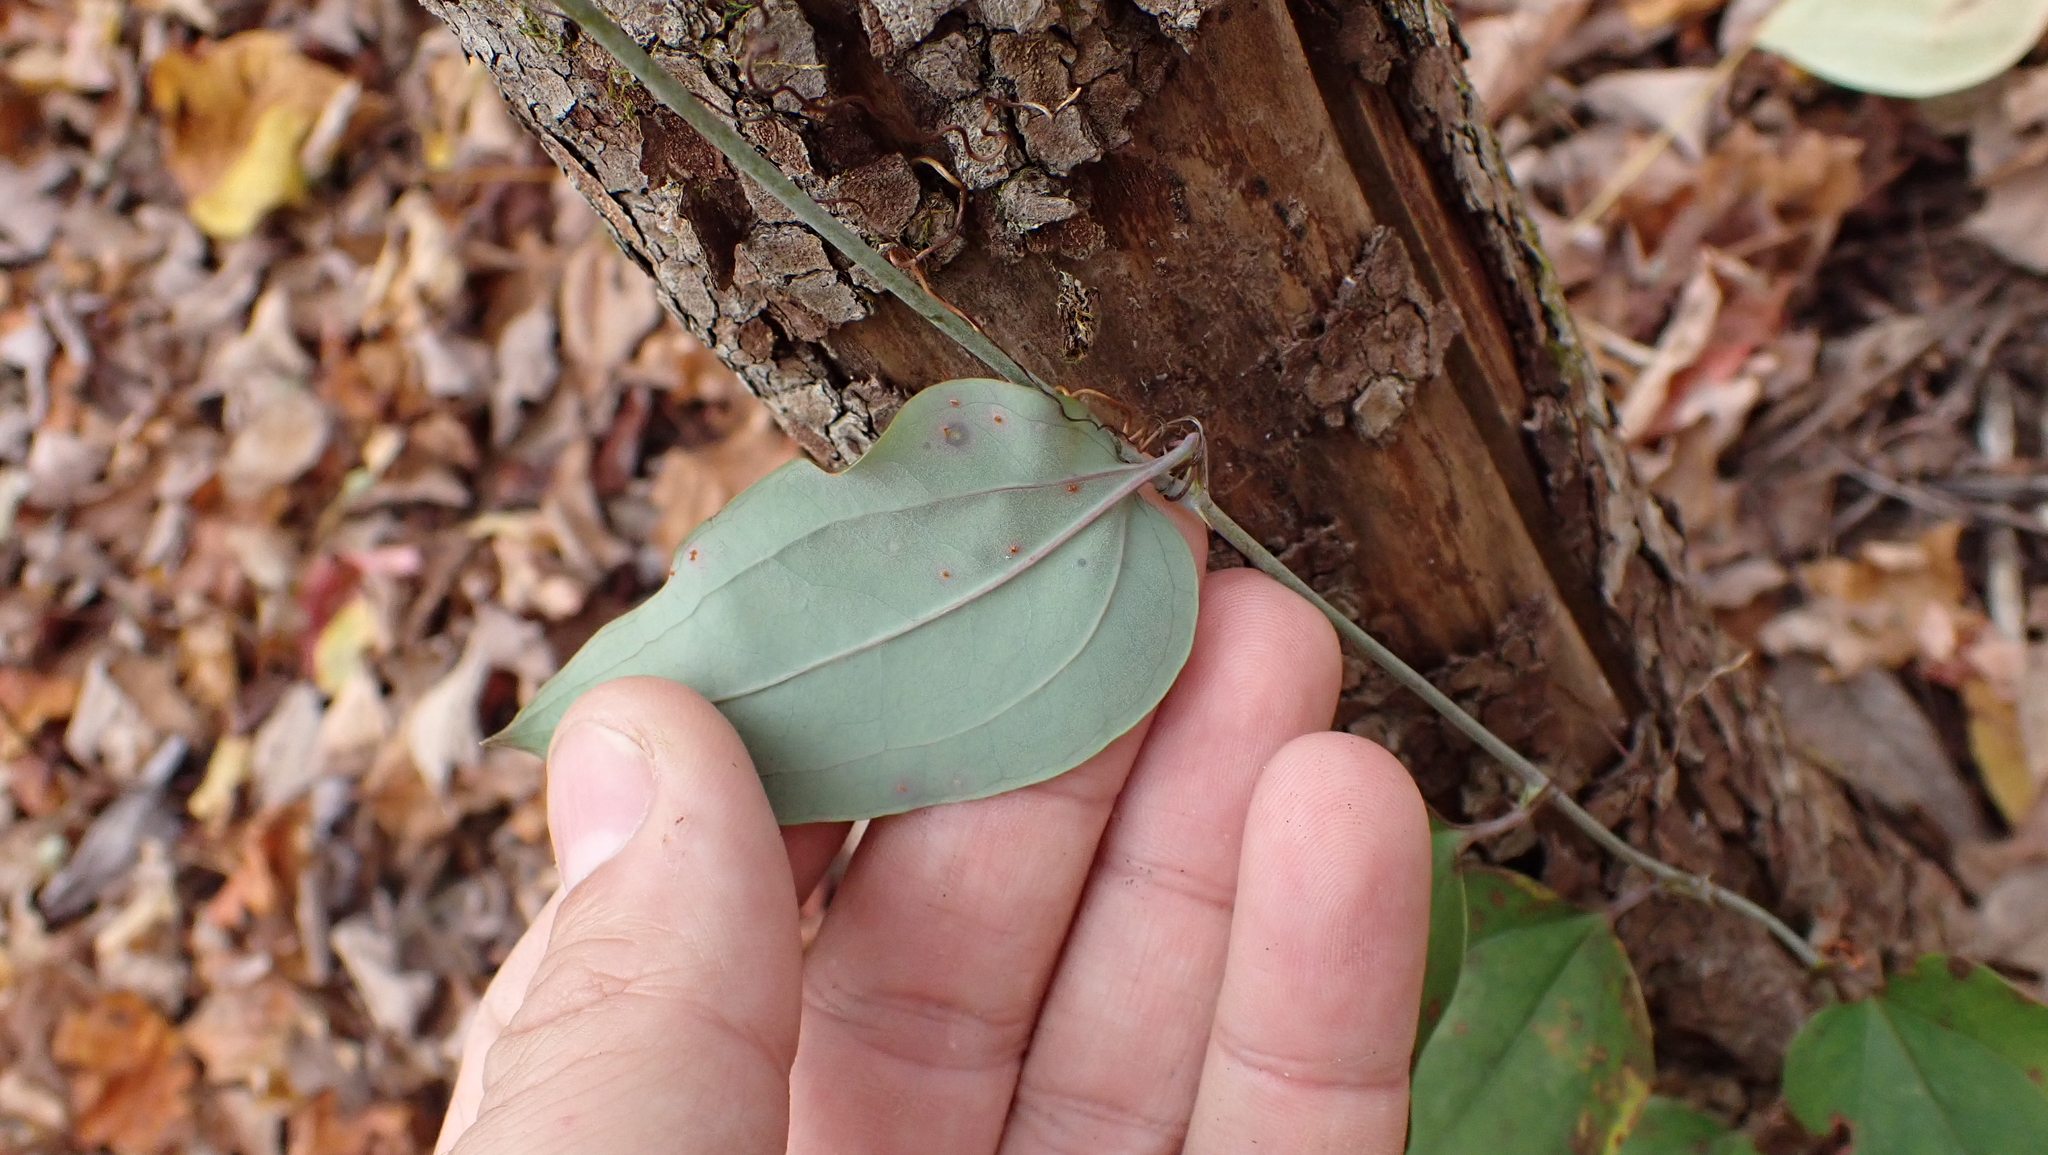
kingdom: Plantae
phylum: Tracheophyta
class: Liliopsida
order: Liliales
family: Smilacaceae
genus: Smilax
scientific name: Smilax glauca
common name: Cat greenbrier
